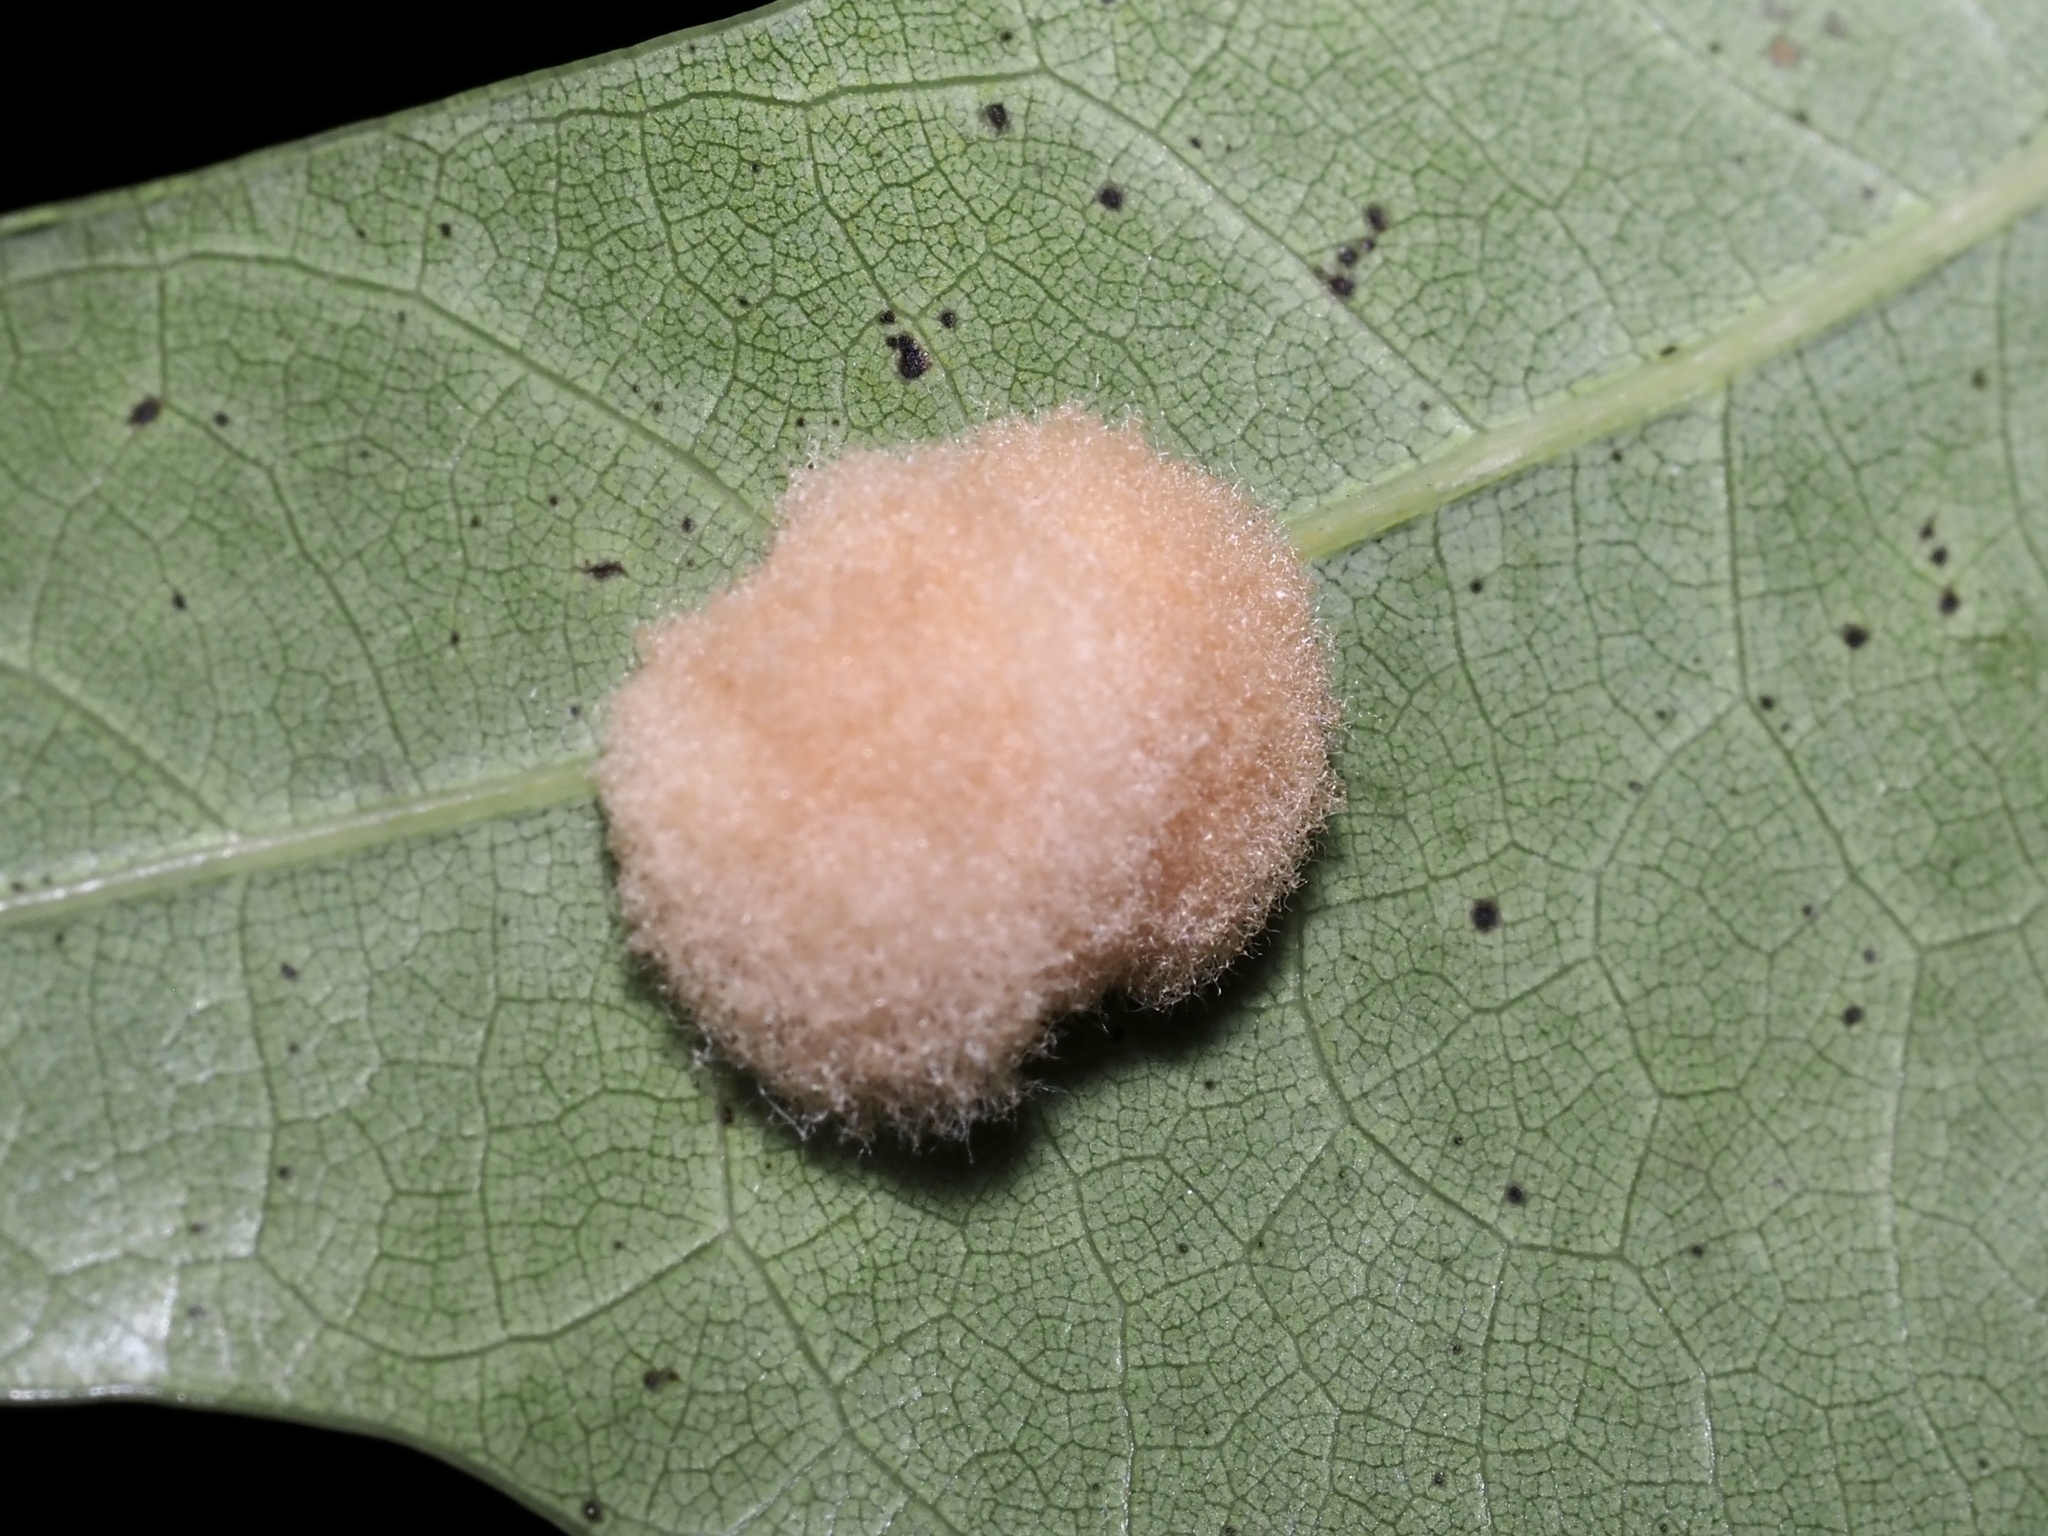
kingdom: Animalia
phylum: Arthropoda
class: Insecta
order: Hymenoptera
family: Cynipidae
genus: Callirhytis
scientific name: Callirhytis
